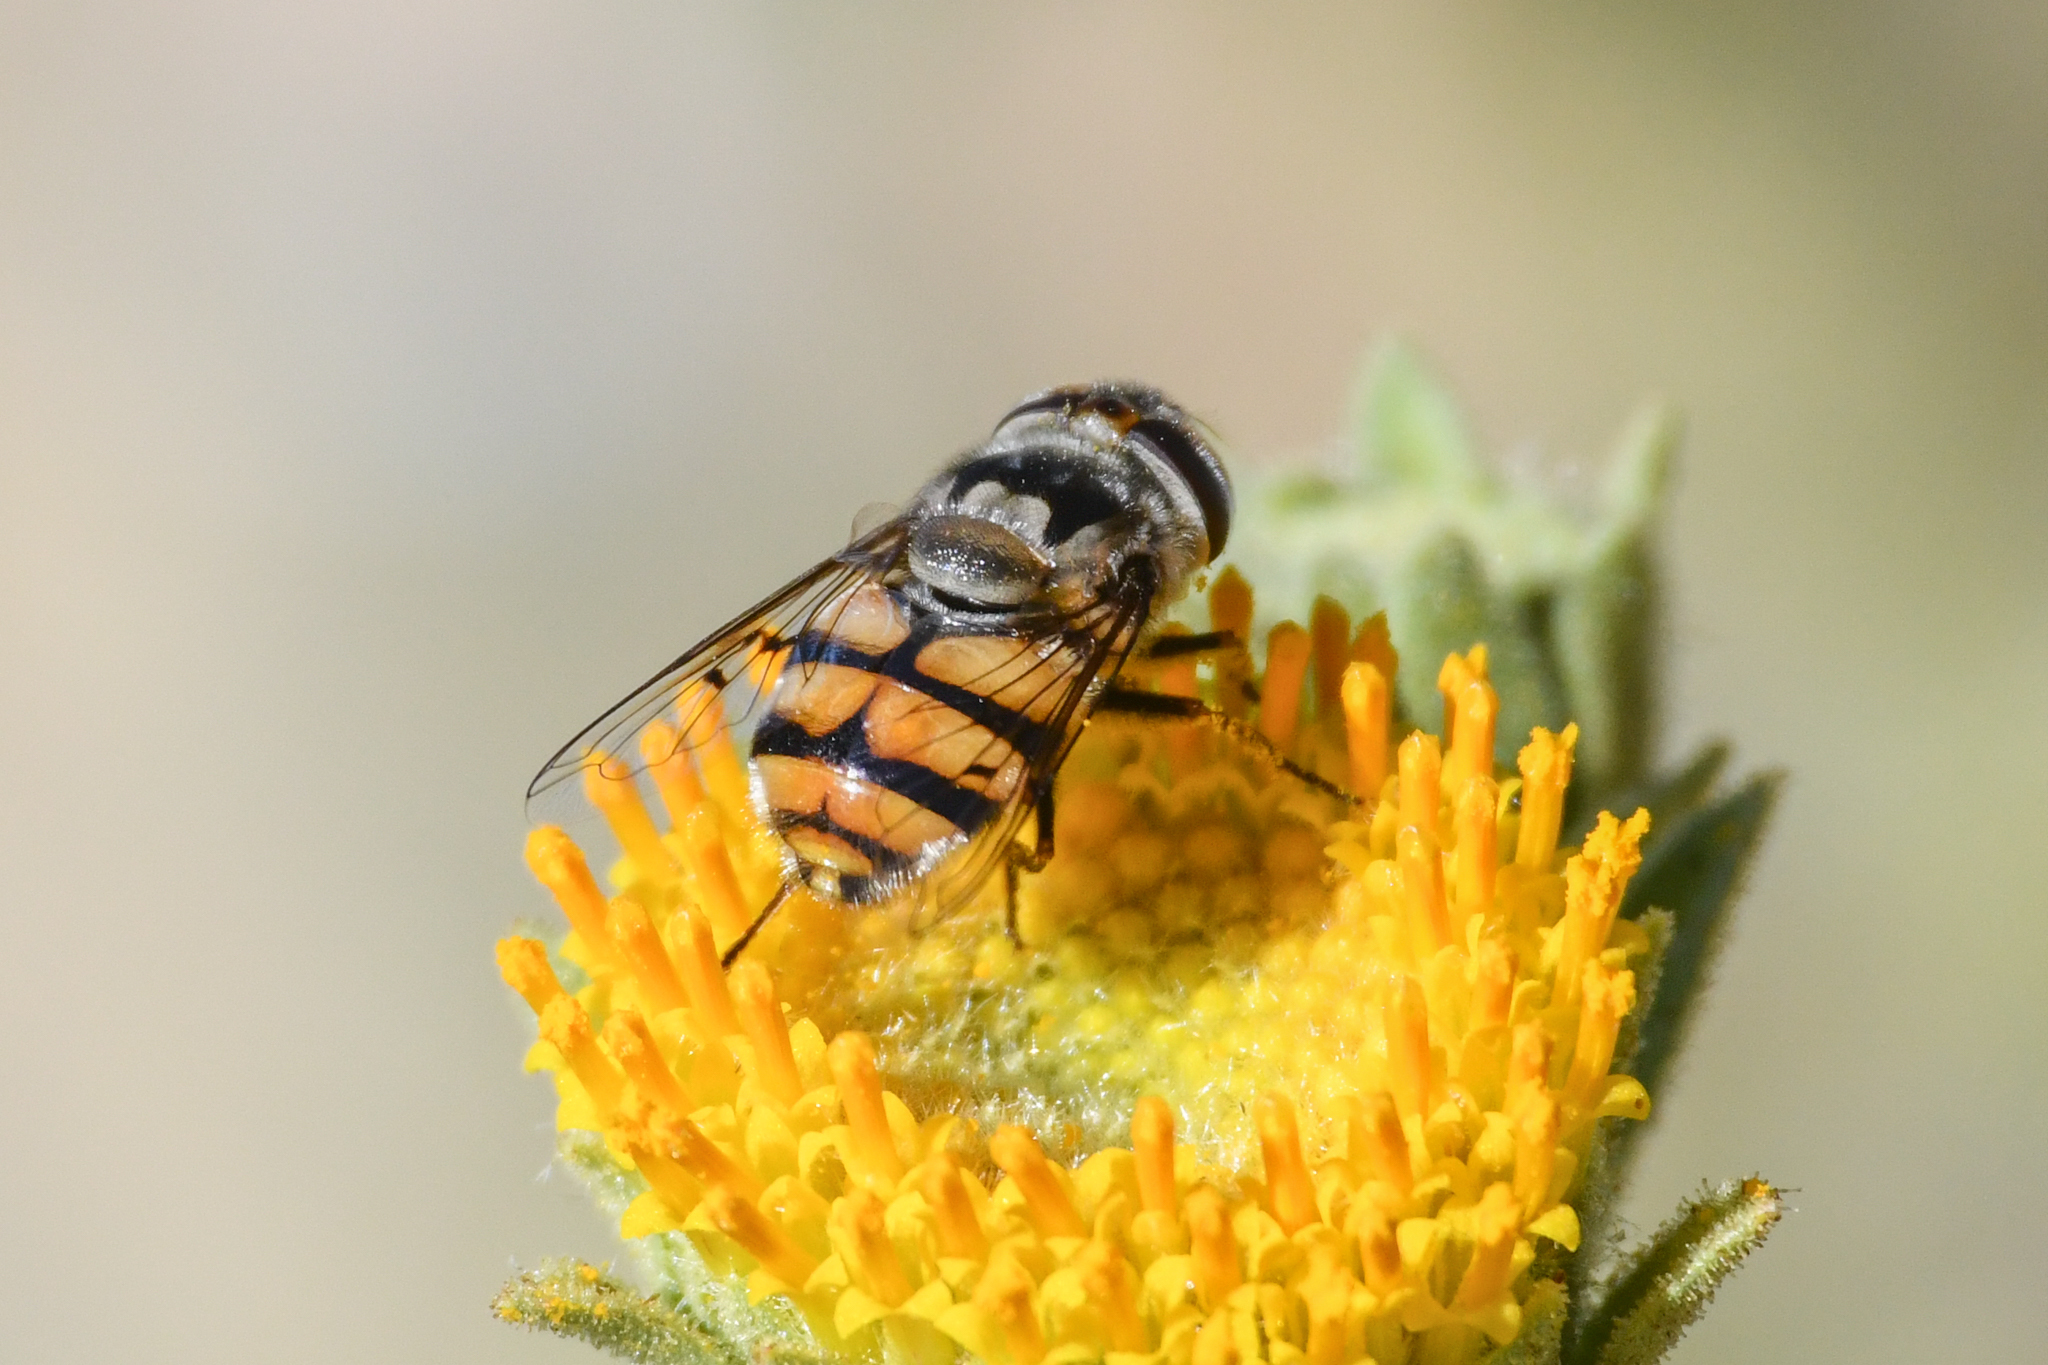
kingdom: Animalia
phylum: Arthropoda
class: Insecta
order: Diptera
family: Syrphidae
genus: Copestylum
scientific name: Copestylum avidum
